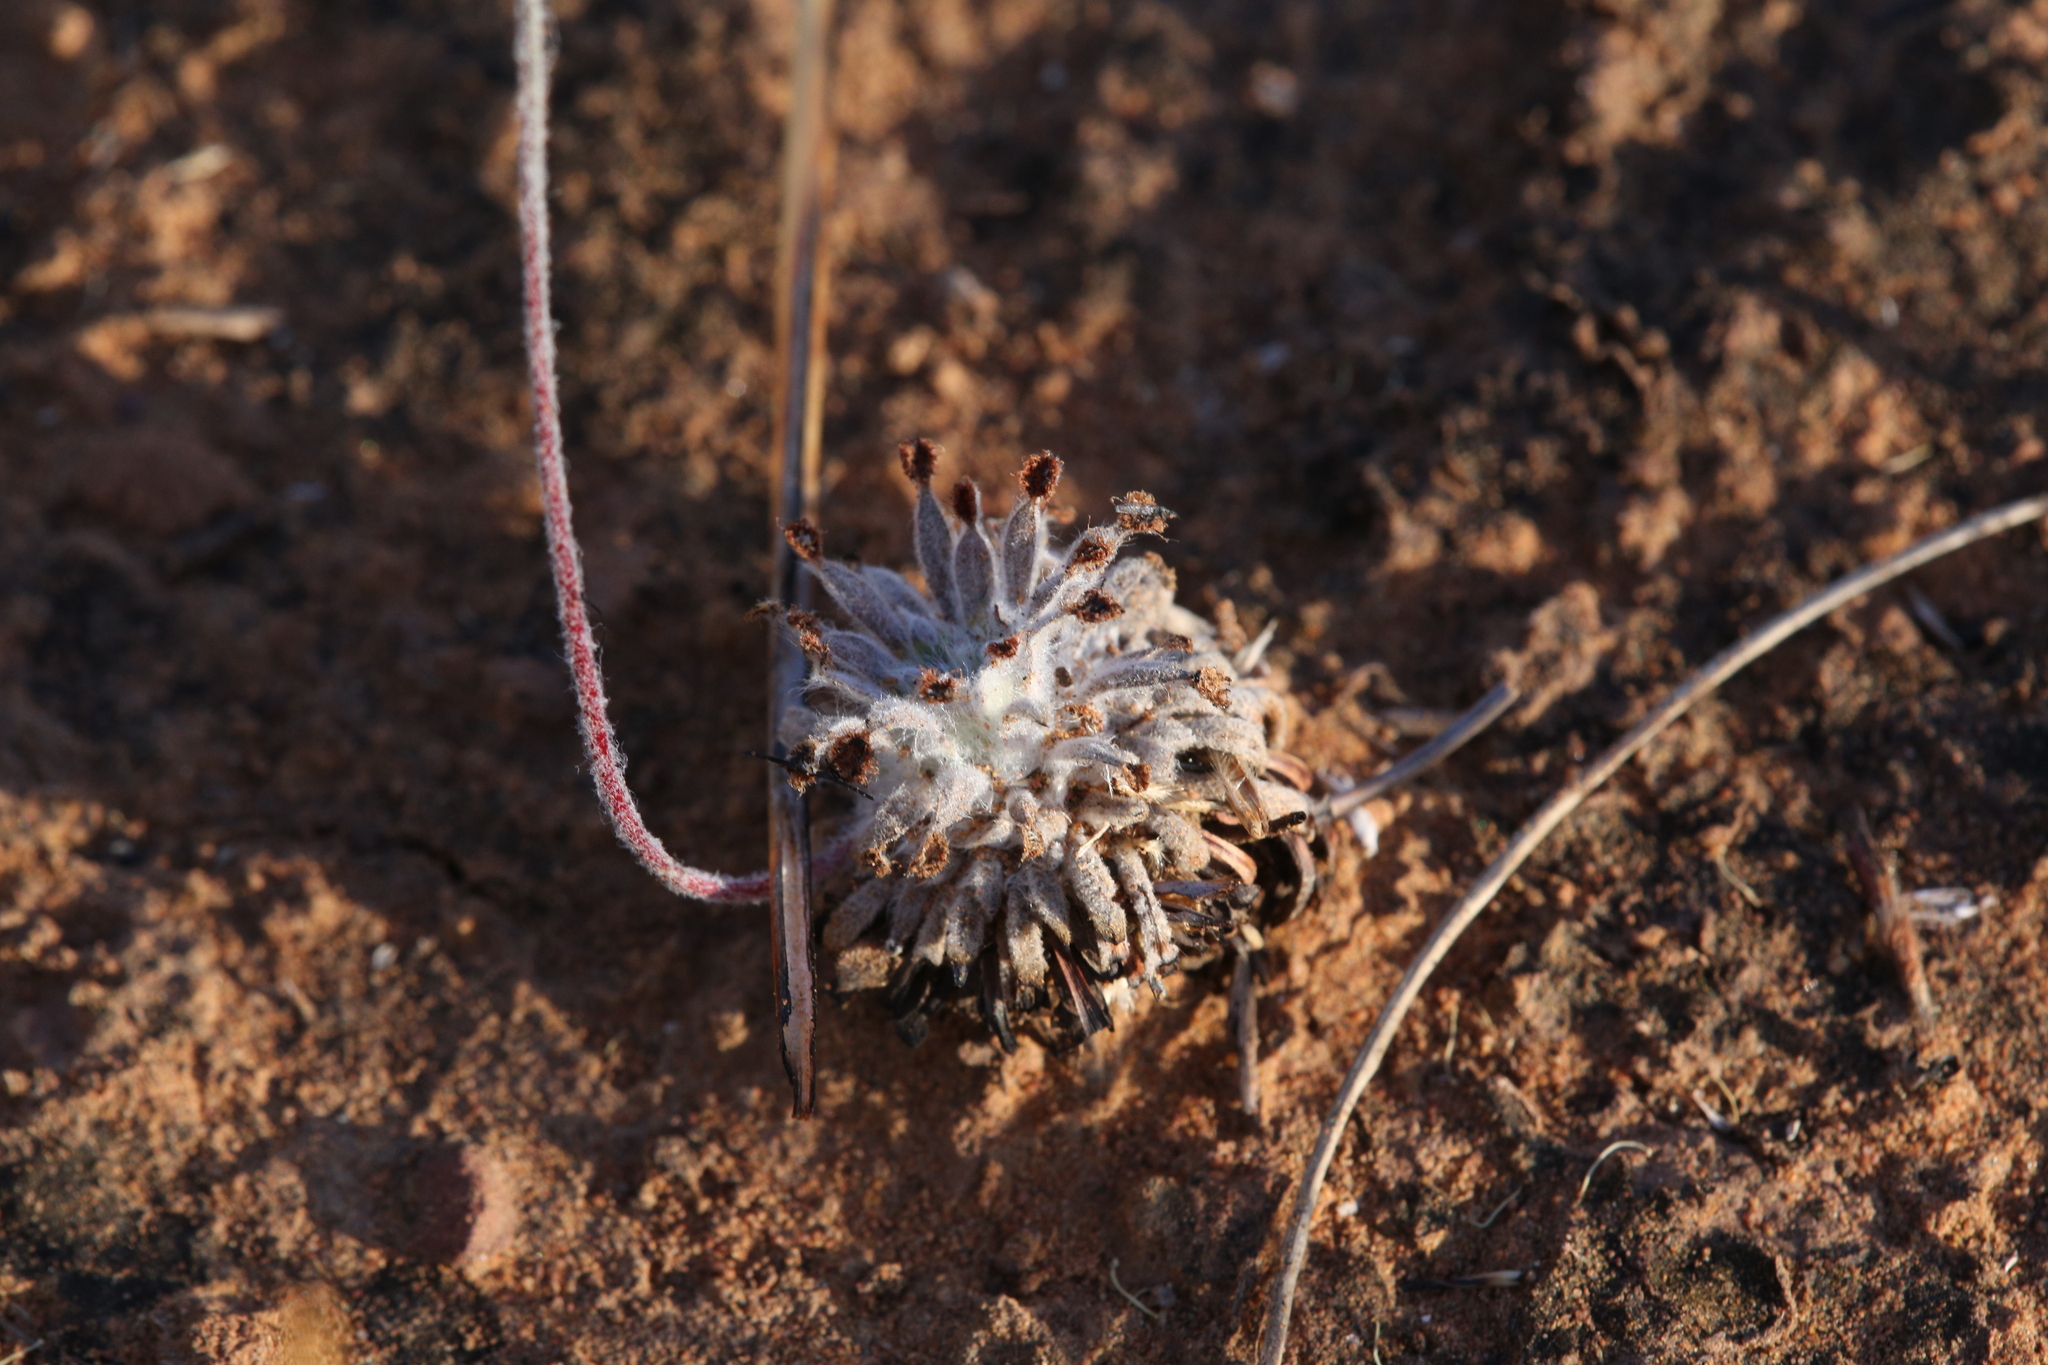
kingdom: Plantae
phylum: Tracheophyta
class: Magnoliopsida
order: Caryophyllales
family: Droseraceae
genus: Drosera
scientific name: Drosera ordensis
